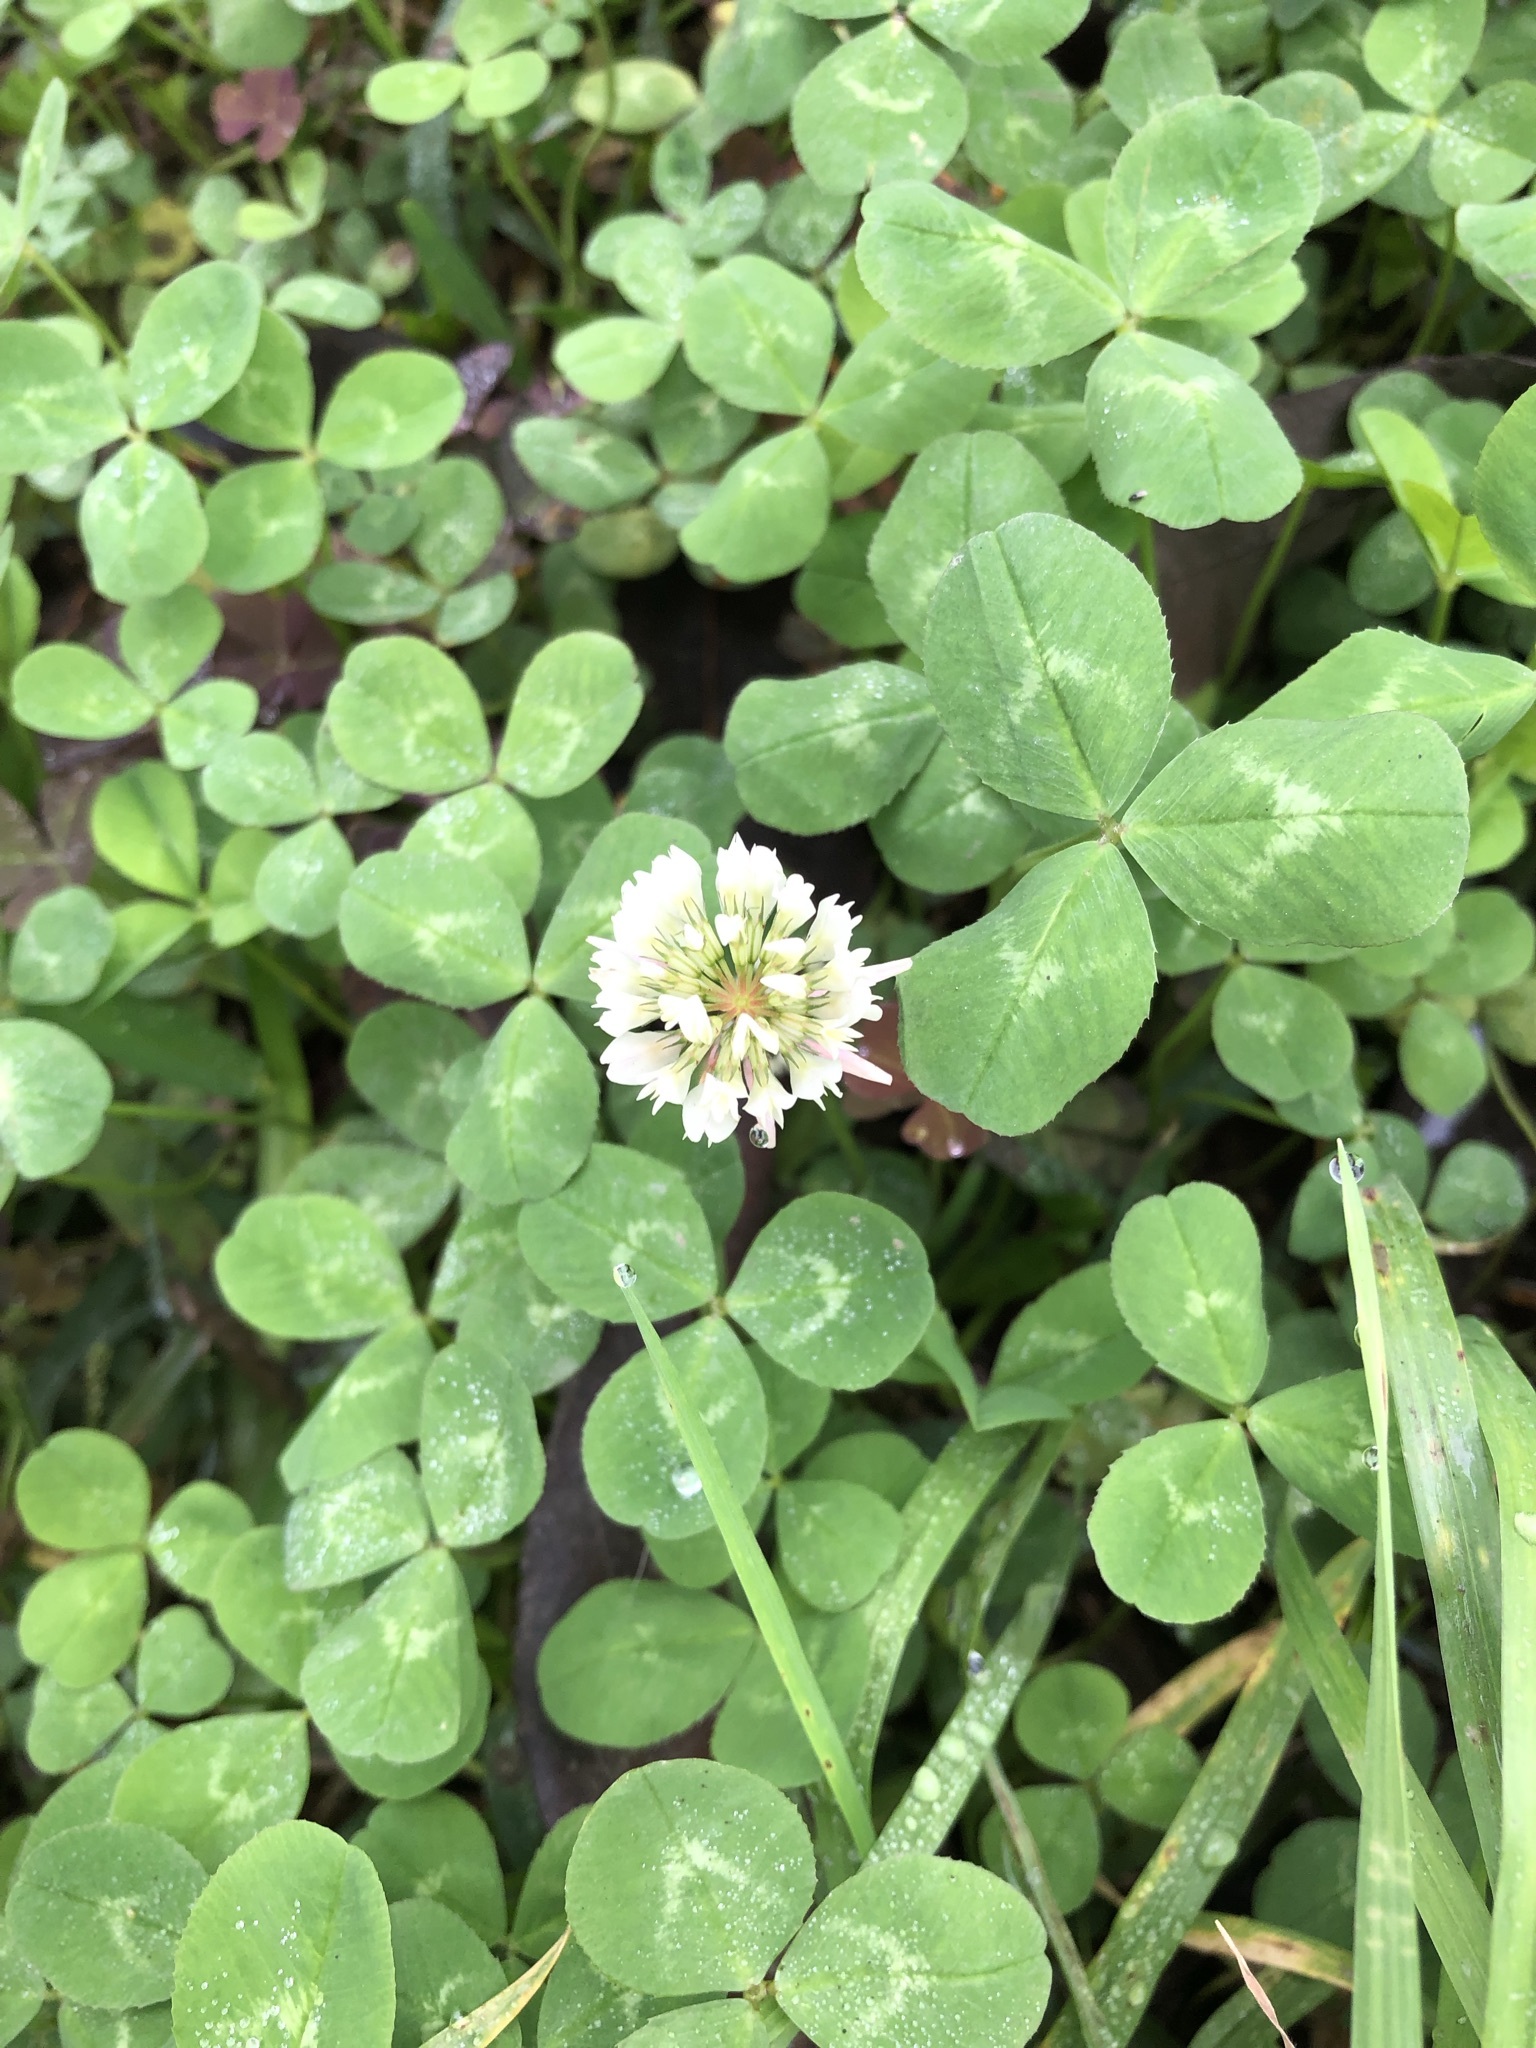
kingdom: Plantae
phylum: Tracheophyta
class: Magnoliopsida
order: Fabales
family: Fabaceae
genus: Trifolium
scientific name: Trifolium repens
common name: White clover
